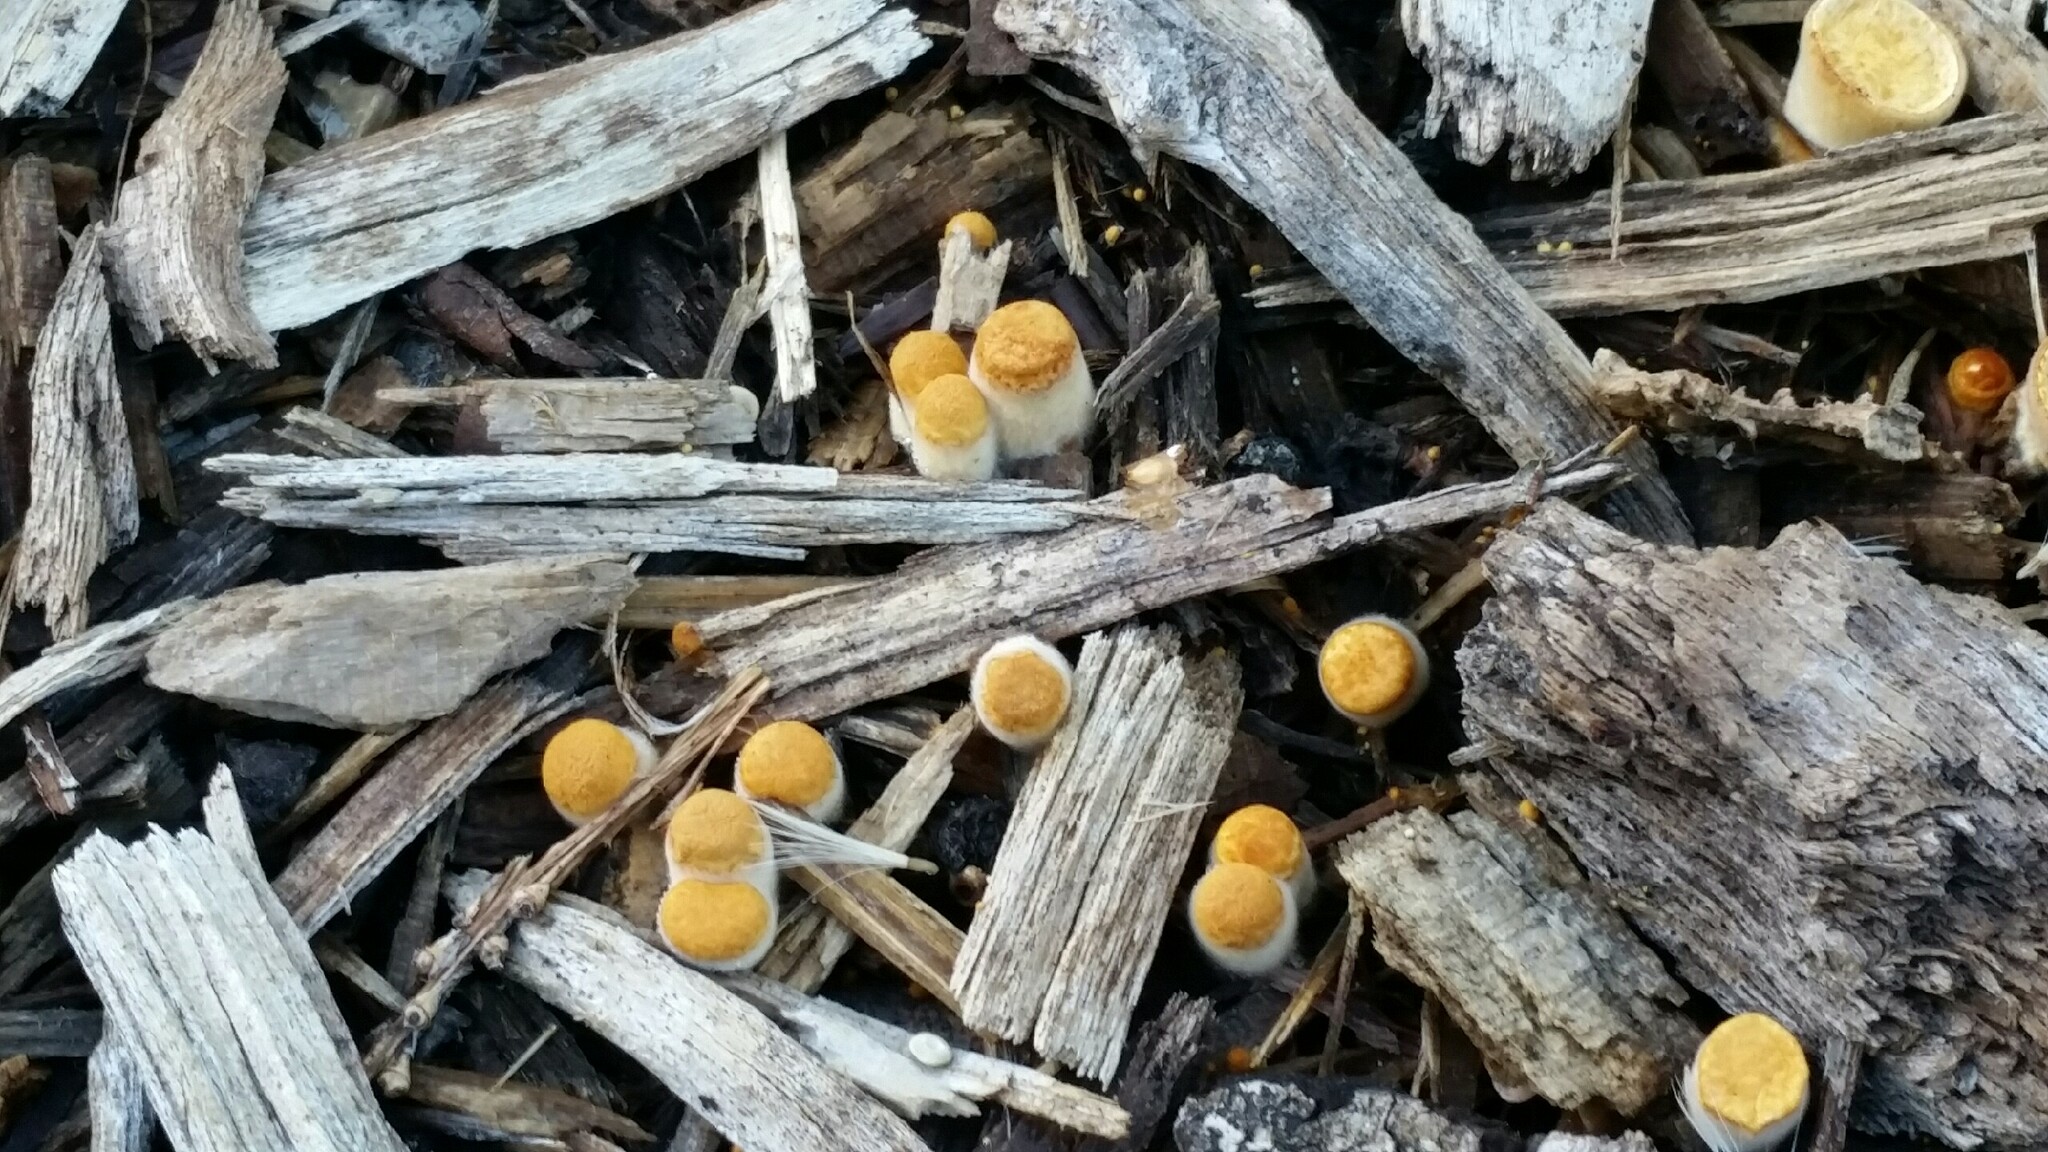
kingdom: Fungi
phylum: Basidiomycota
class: Agaricomycetes
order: Agaricales
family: Nidulariaceae
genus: Crucibulum
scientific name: Crucibulum laeve
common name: Common bird's nest
